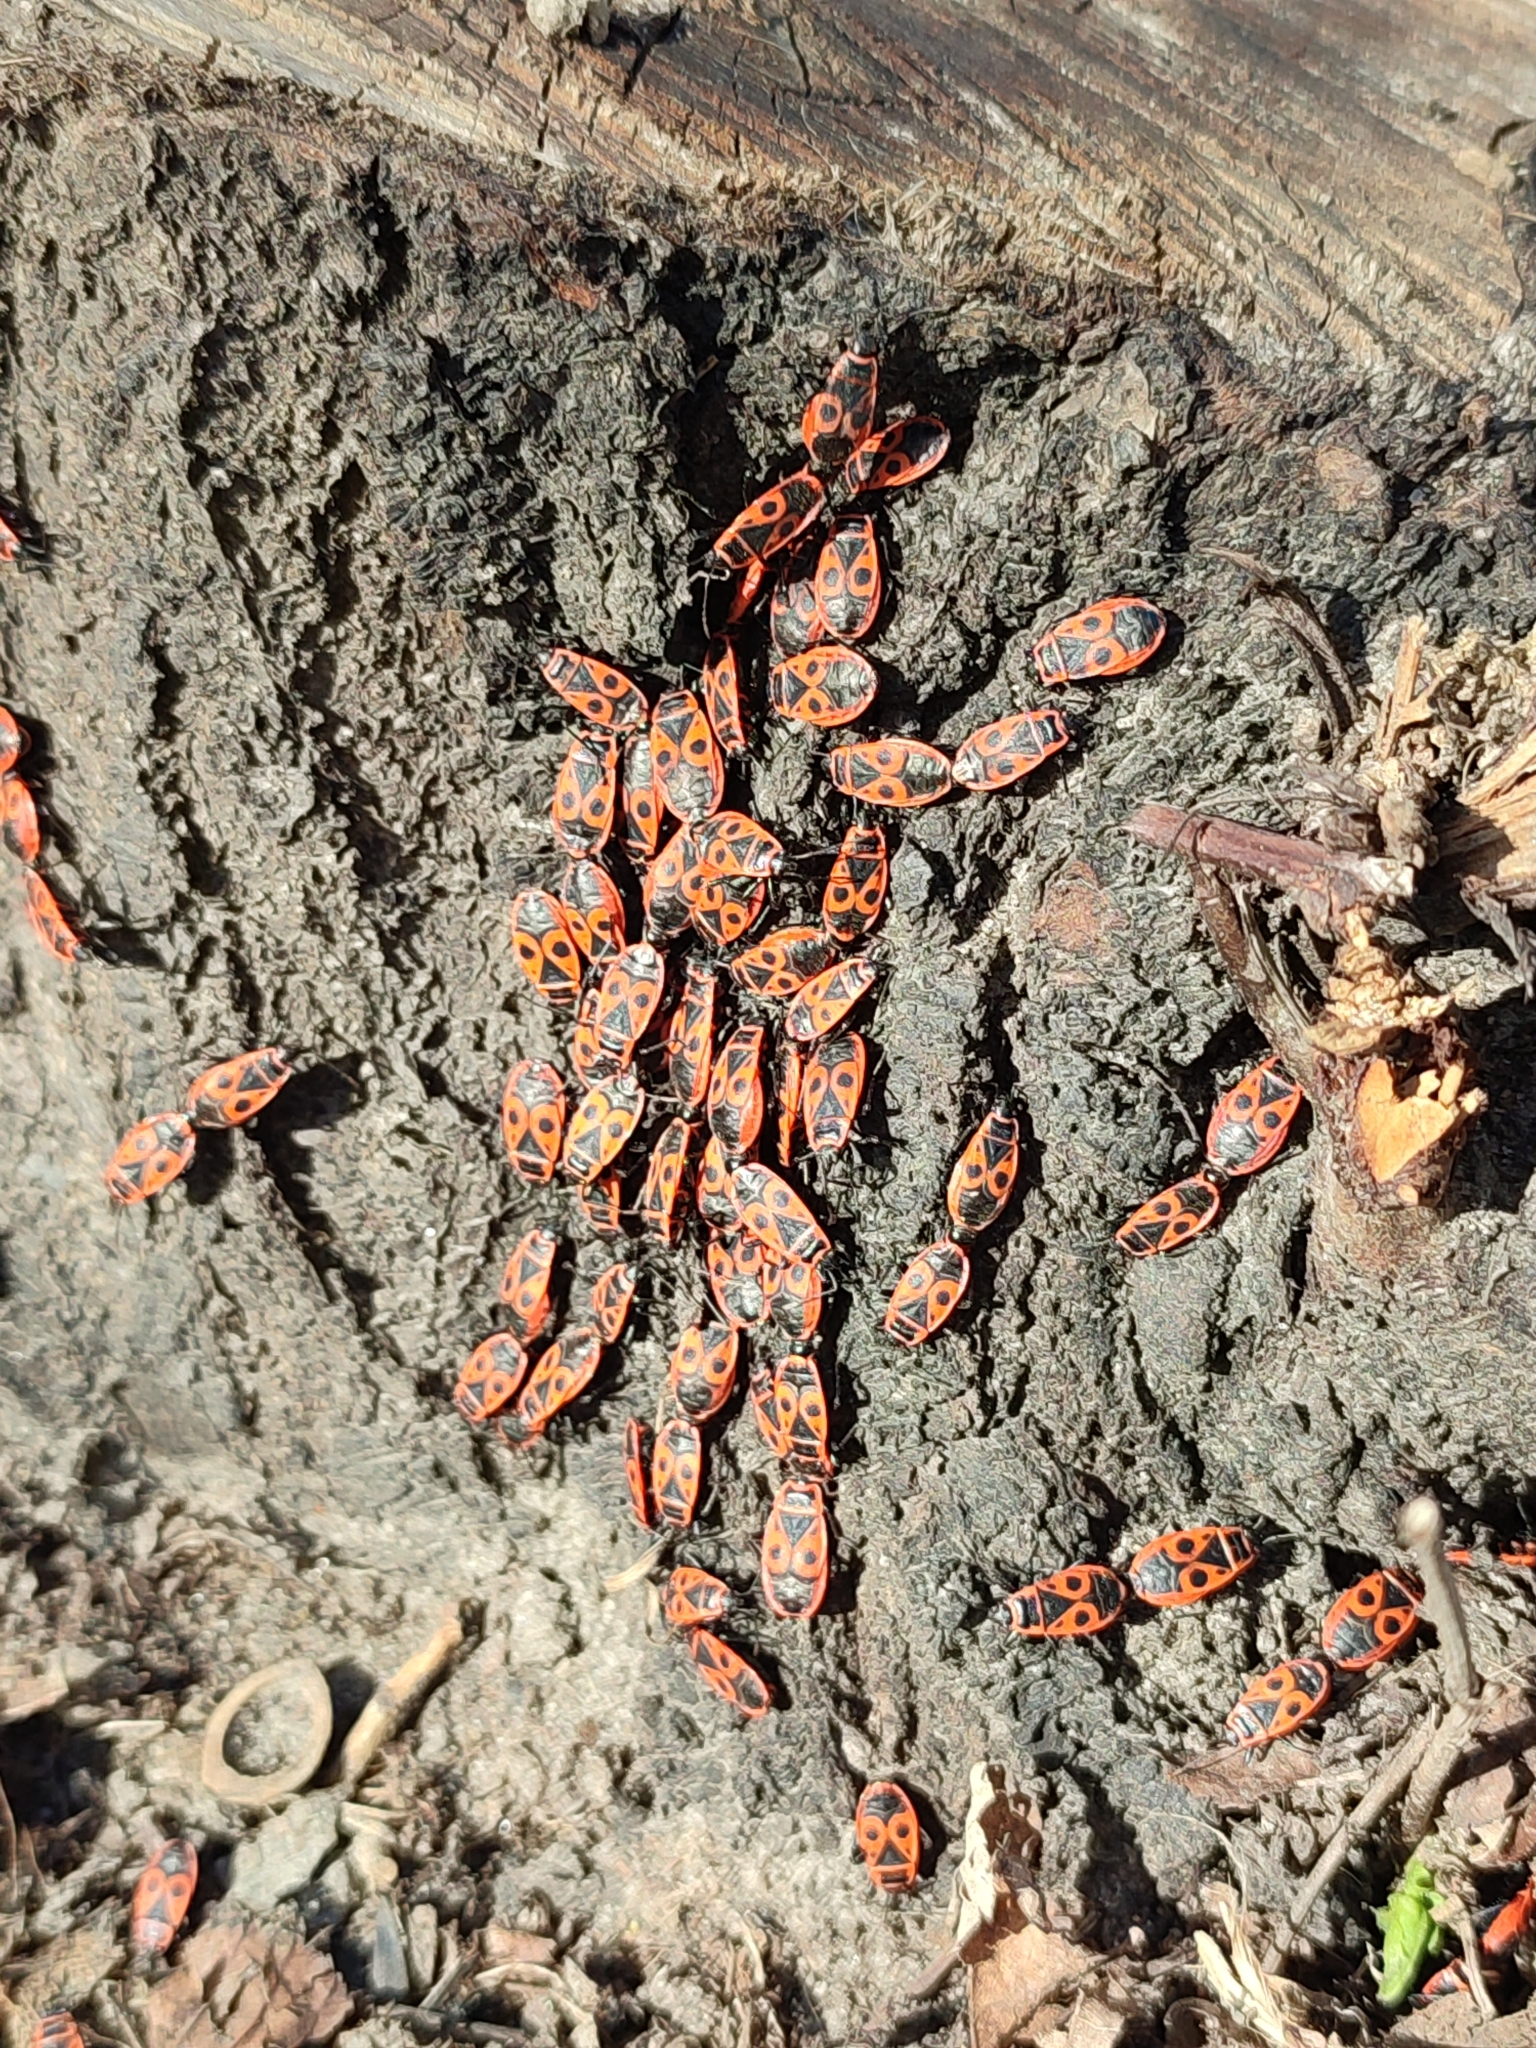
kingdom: Animalia
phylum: Arthropoda
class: Insecta
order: Hemiptera
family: Pyrrhocoridae
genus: Pyrrhocoris
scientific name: Pyrrhocoris apterus
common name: Firebug
